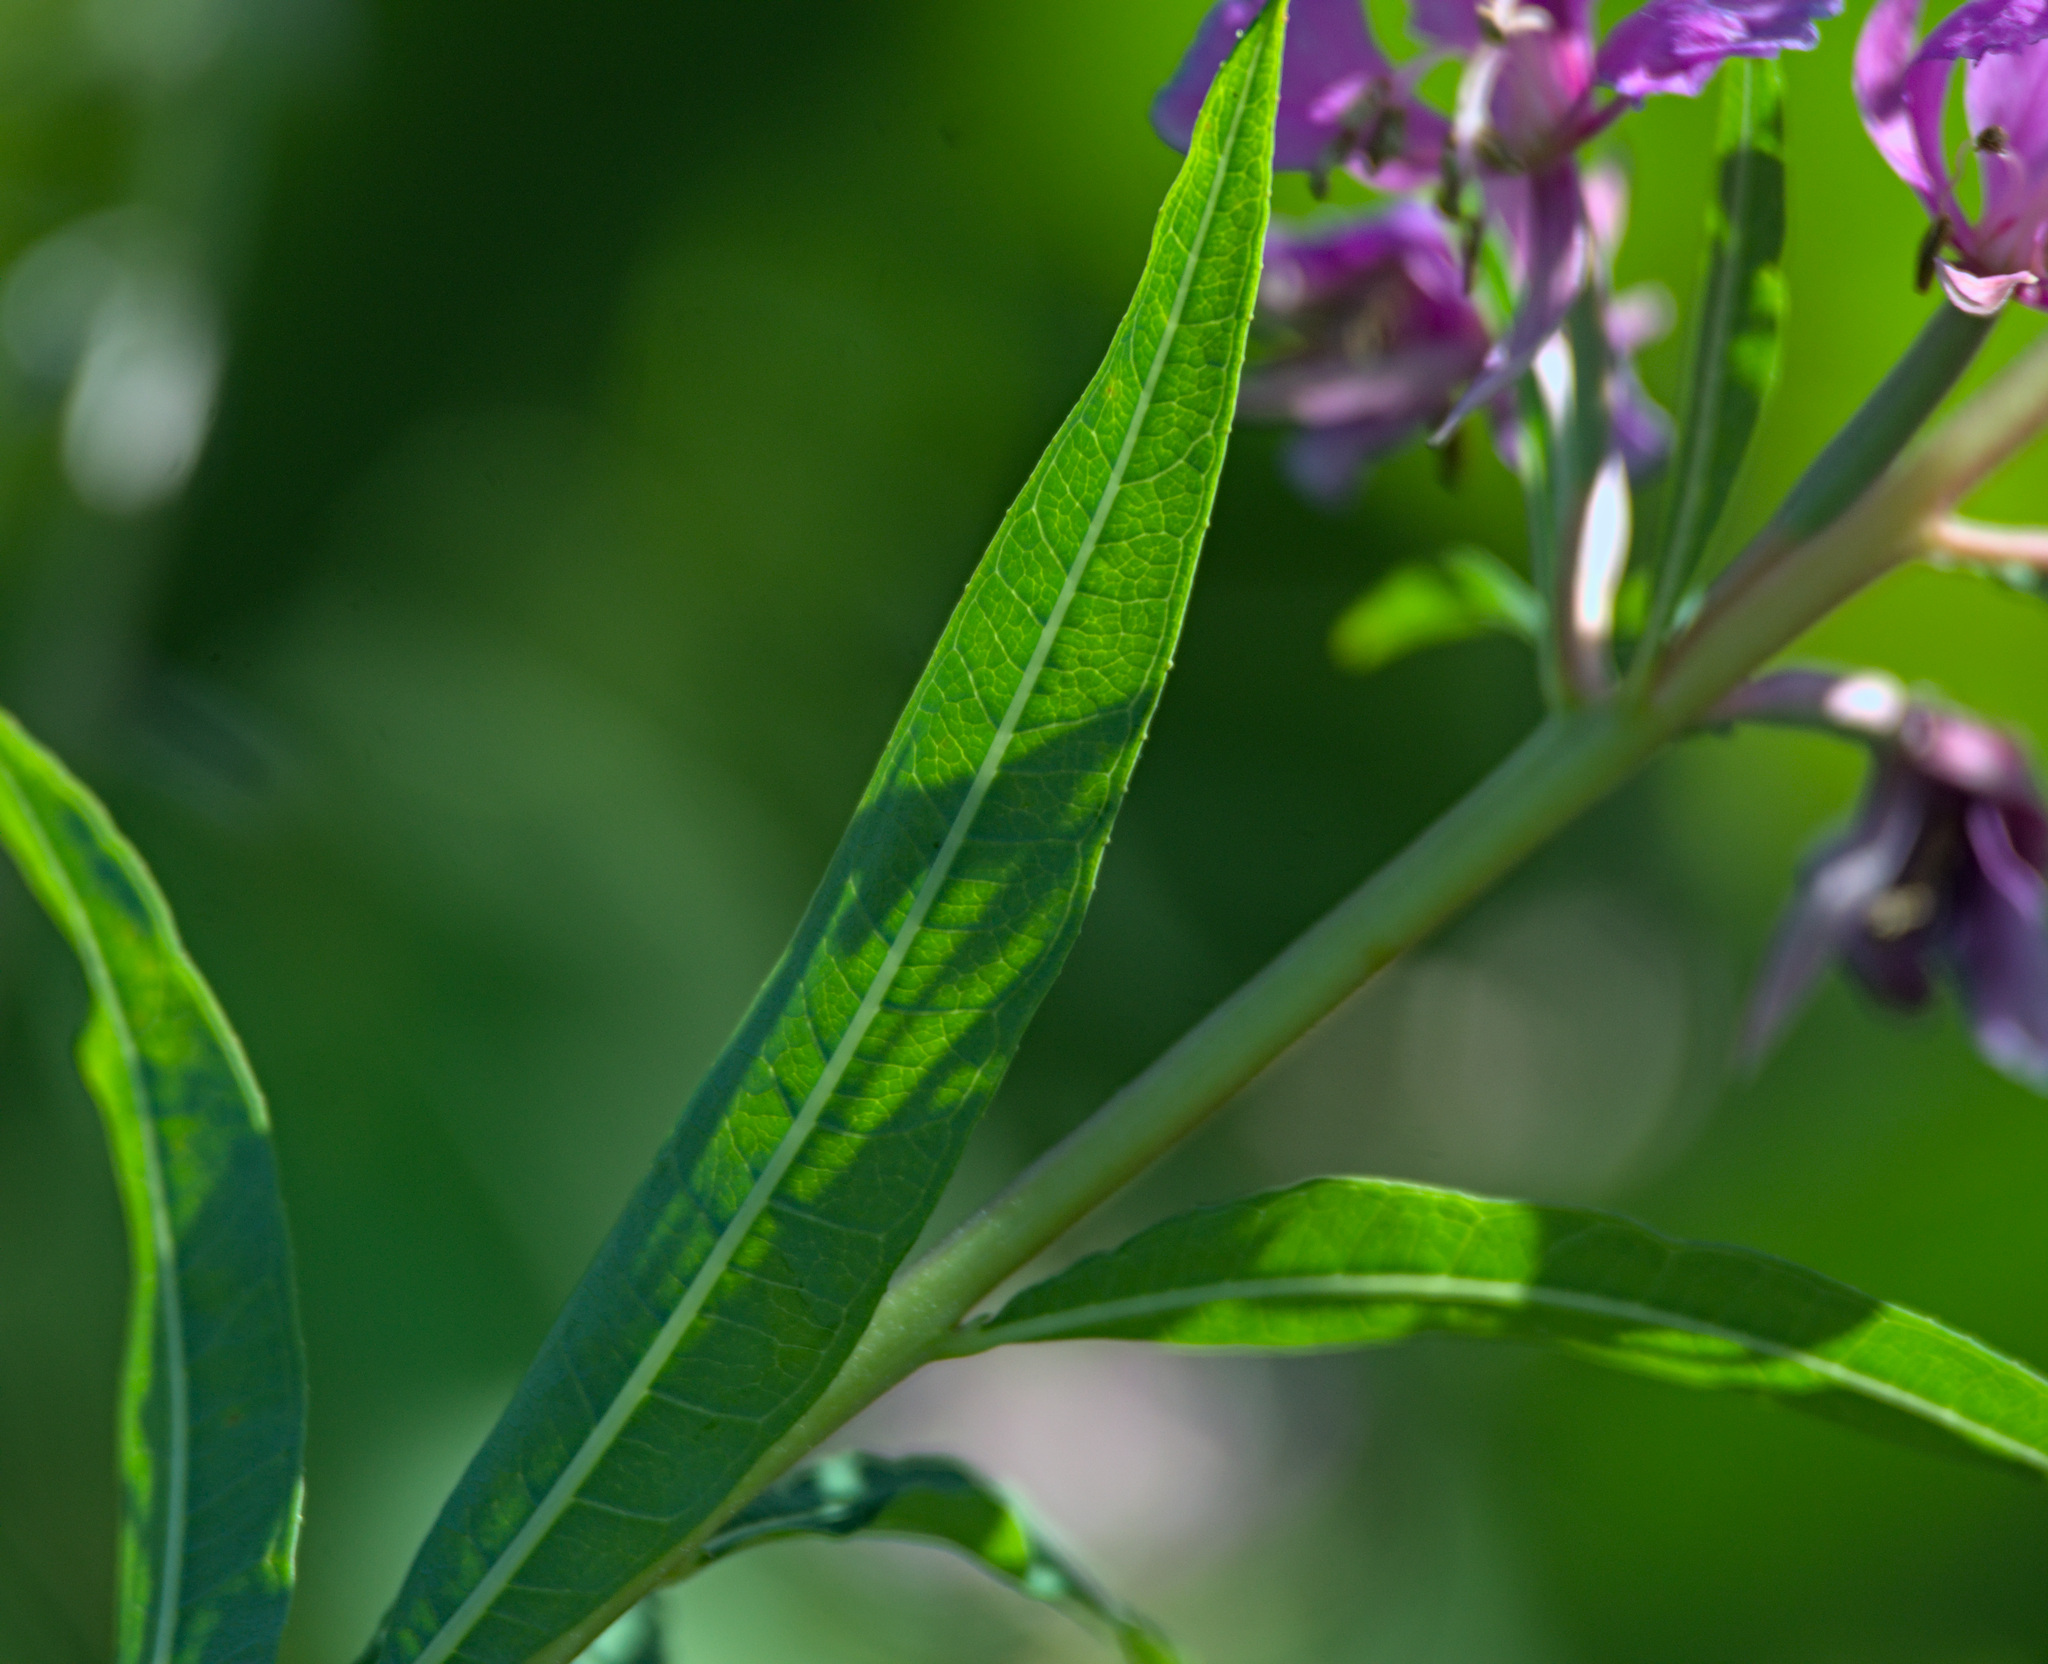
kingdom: Plantae
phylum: Tracheophyta
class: Magnoliopsida
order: Myrtales
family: Onagraceae
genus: Chamaenerion
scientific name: Chamaenerion angustifolium
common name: Fireweed
